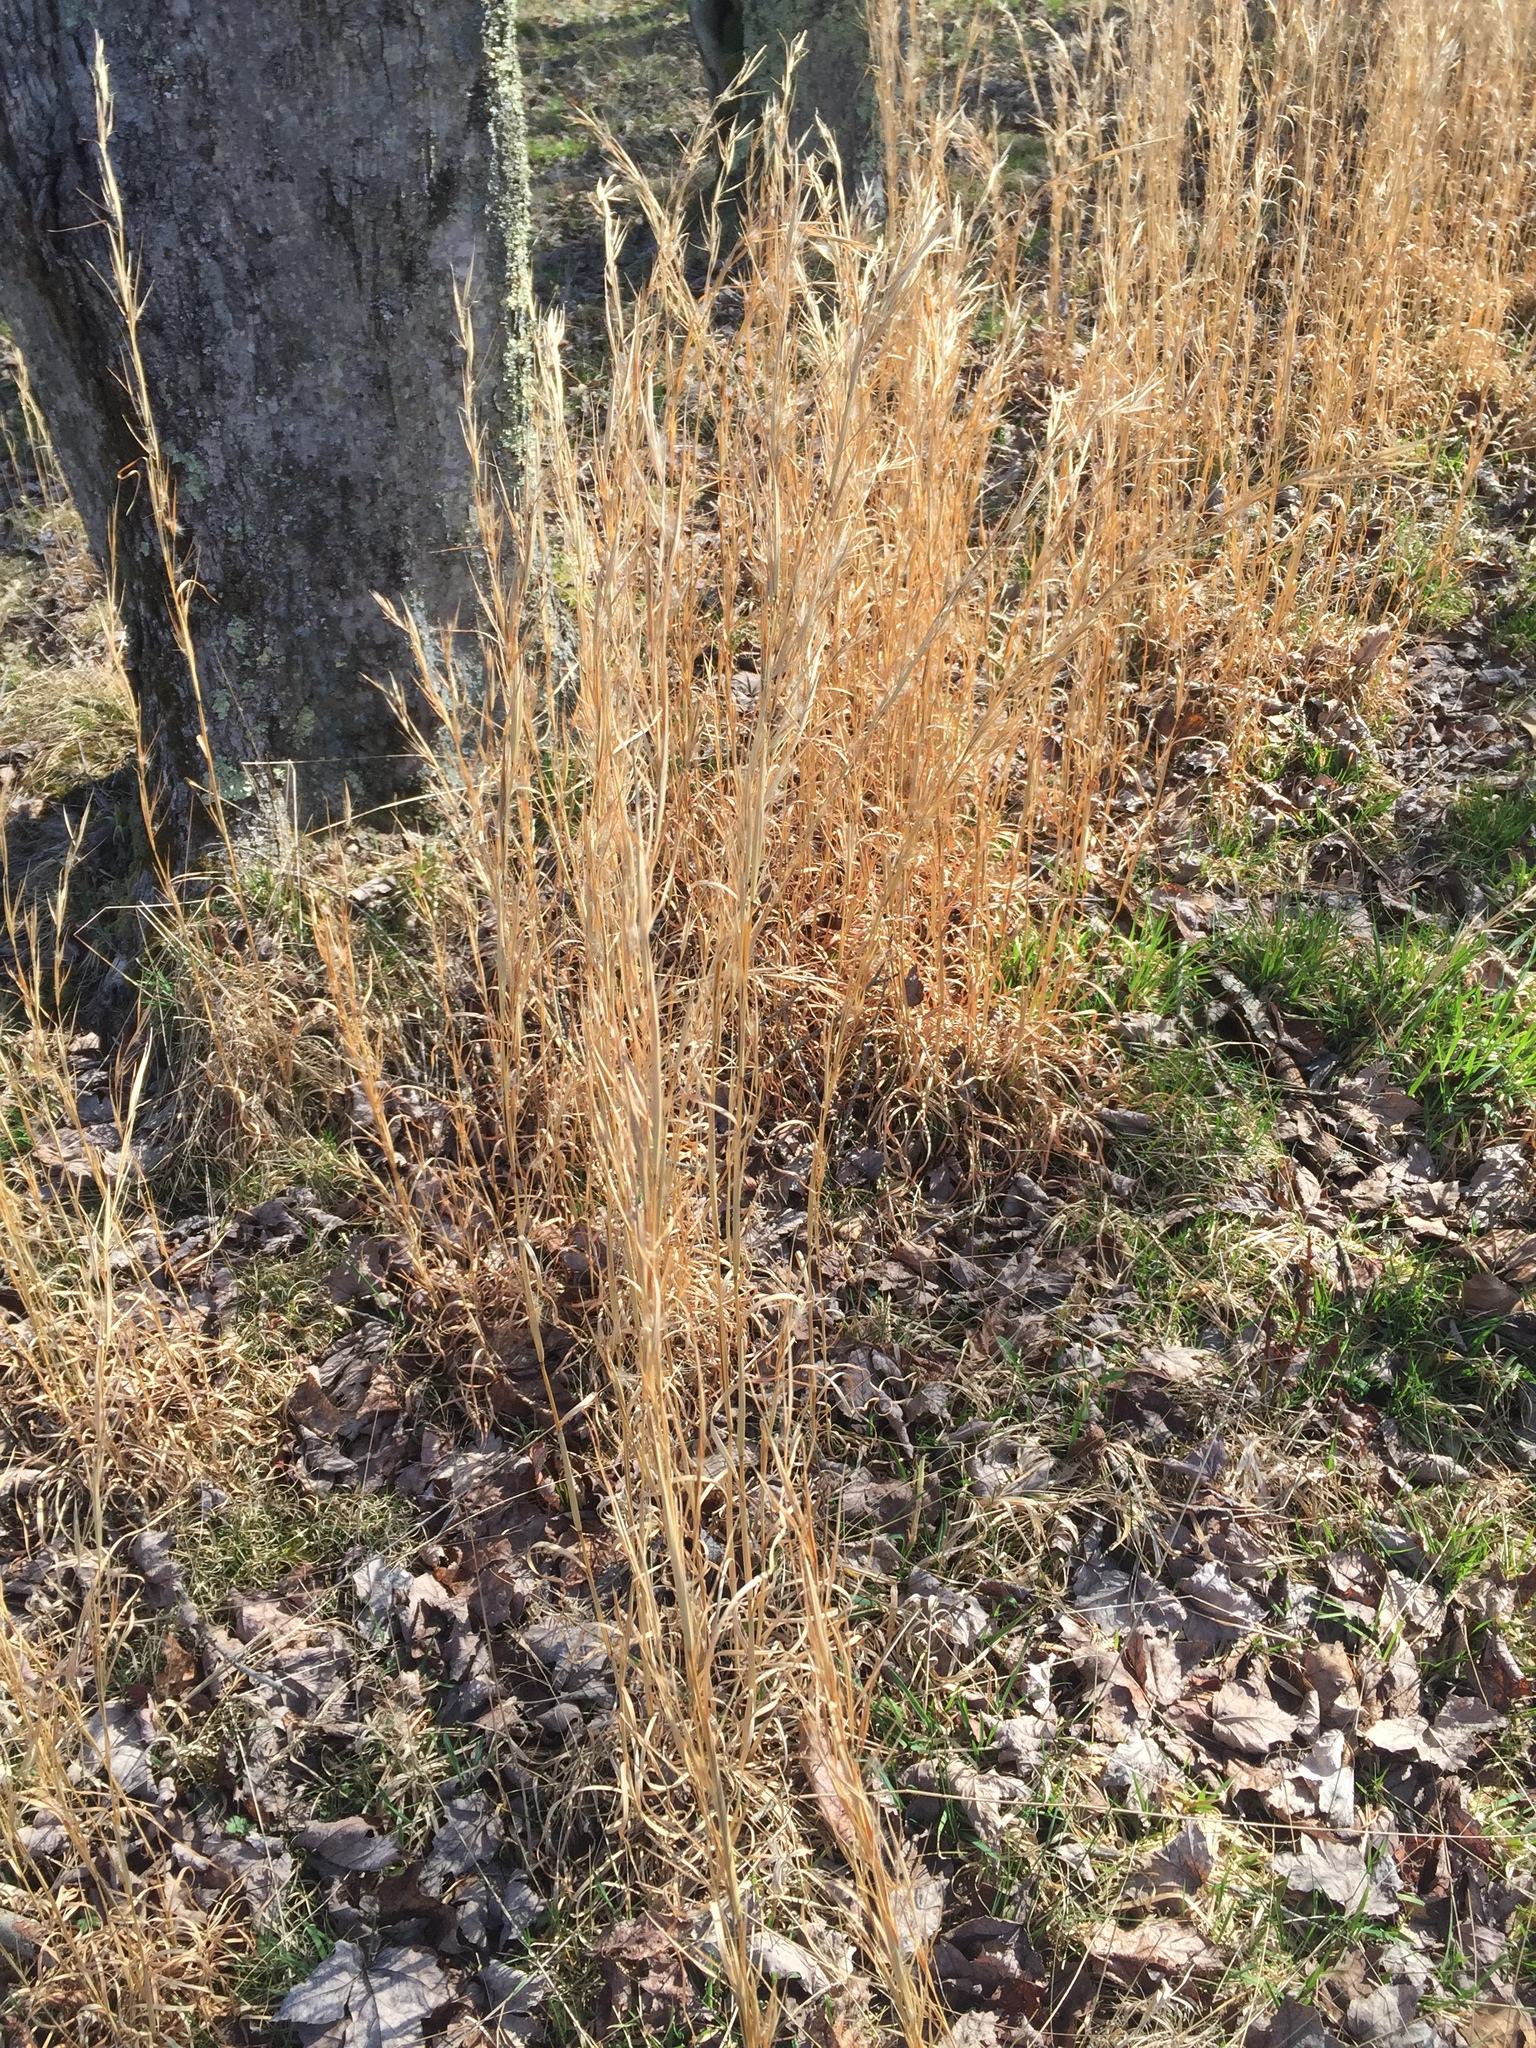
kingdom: Plantae
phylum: Tracheophyta
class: Liliopsida
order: Poales
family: Poaceae
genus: Andropogon
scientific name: Andropogon virginicus
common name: Broomsedge bluestem
